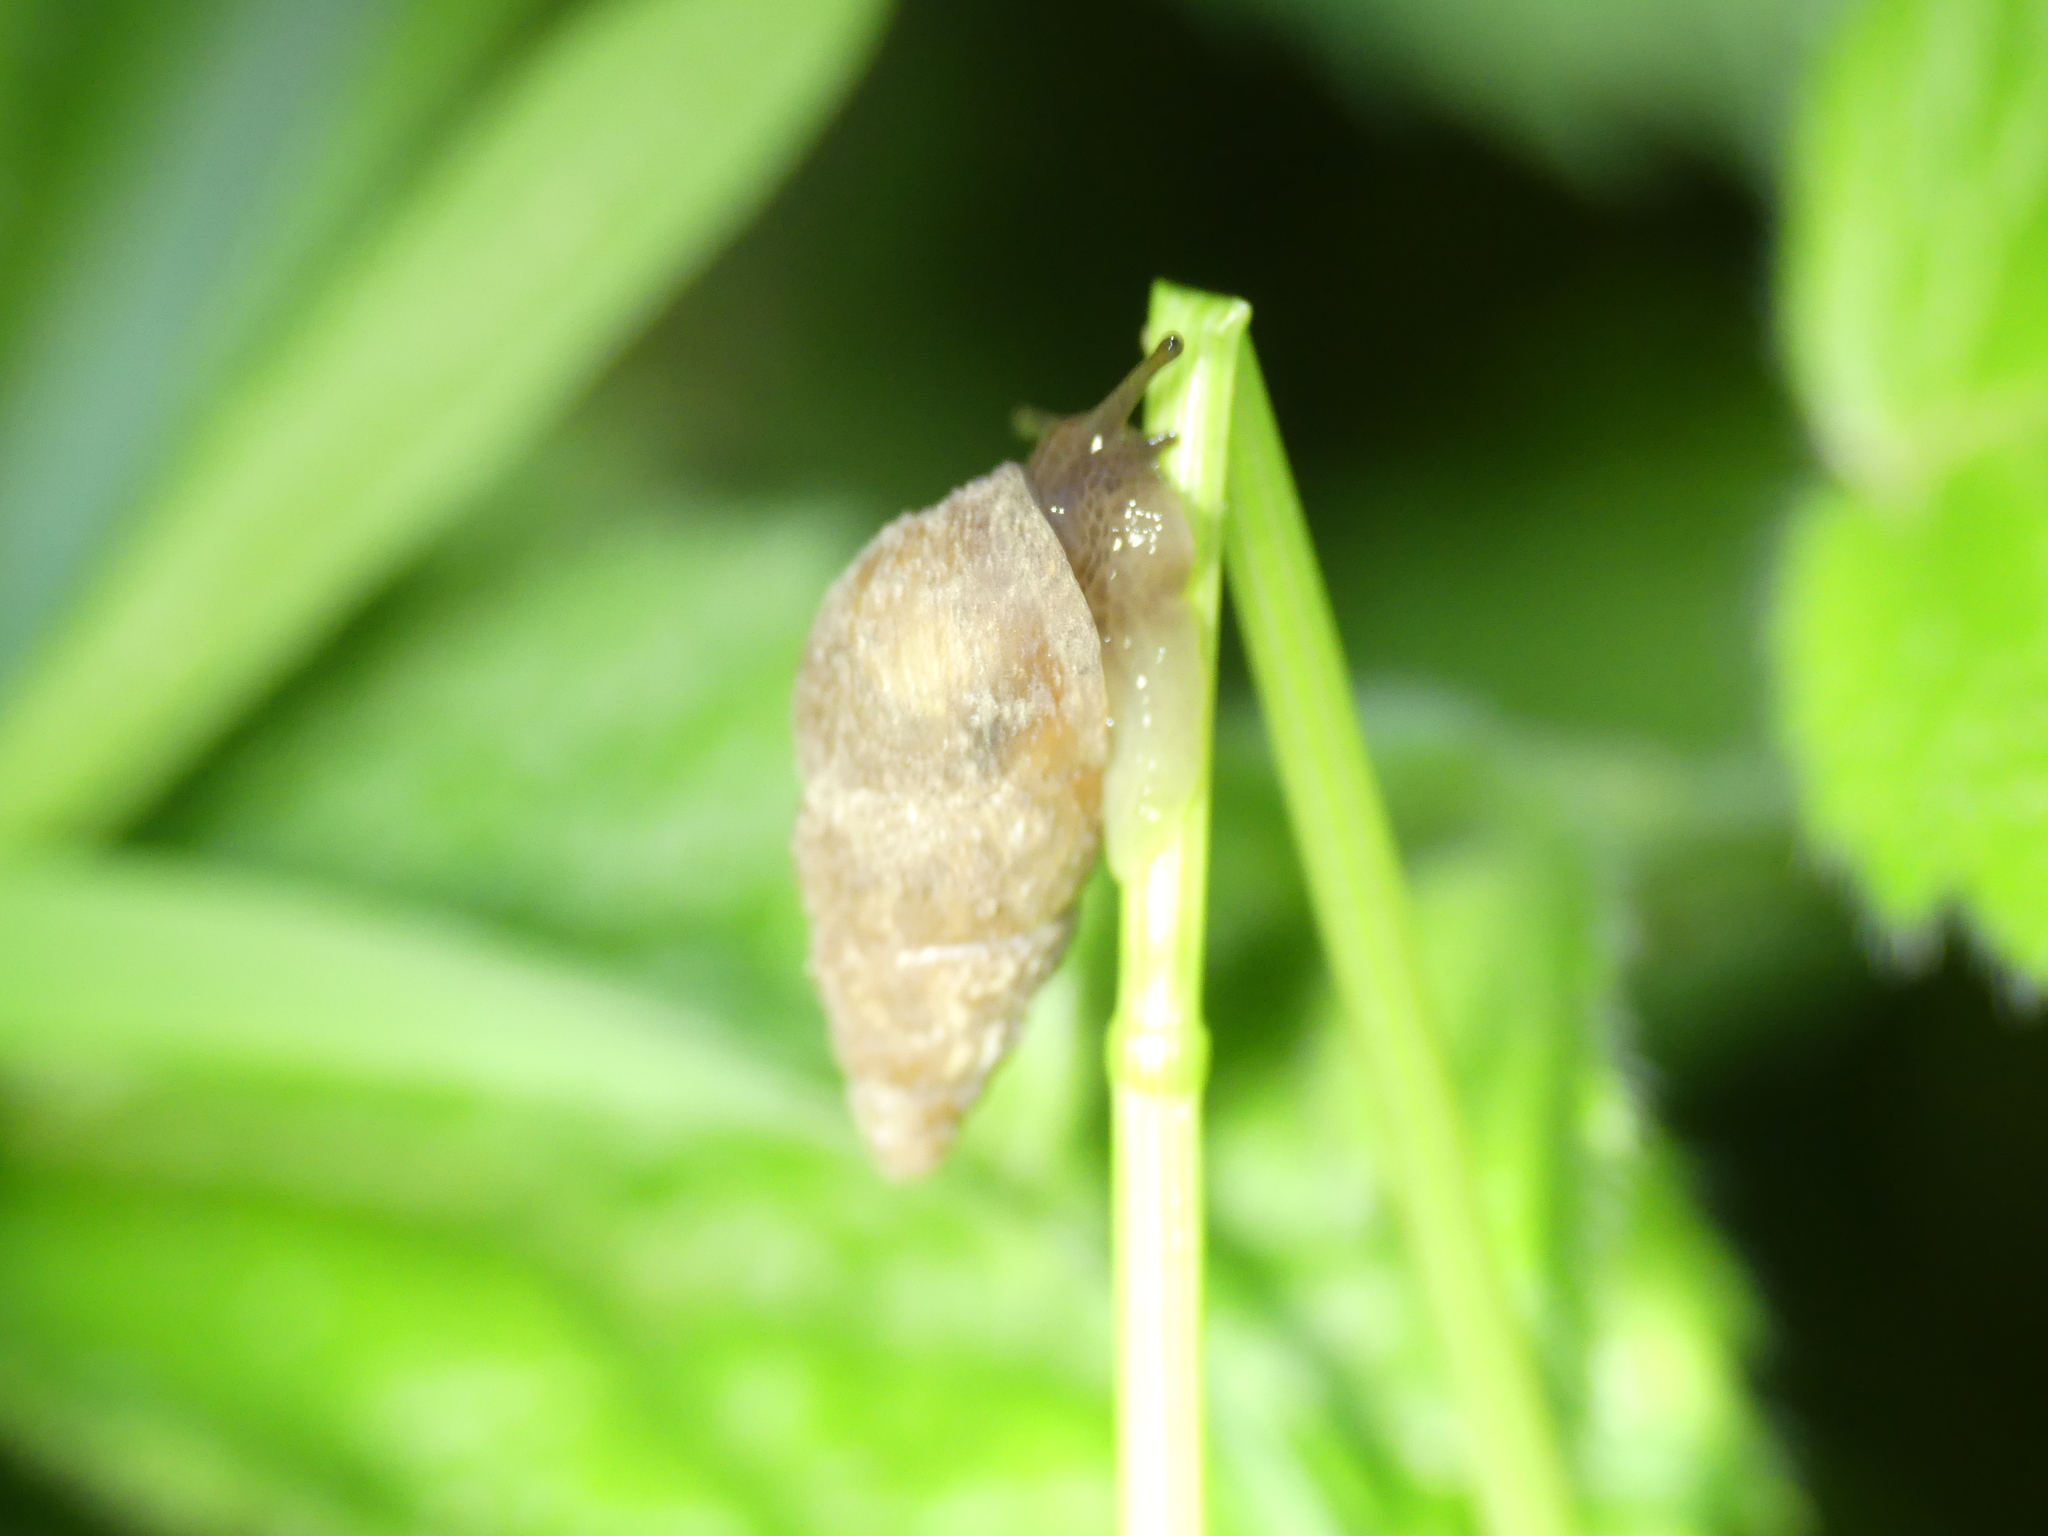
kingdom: Animalia
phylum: Mollusca
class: Gastropoda
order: Stylommatophora
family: Enidae
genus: Merdigera
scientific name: Merdigera obscura
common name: Lesser bulin
